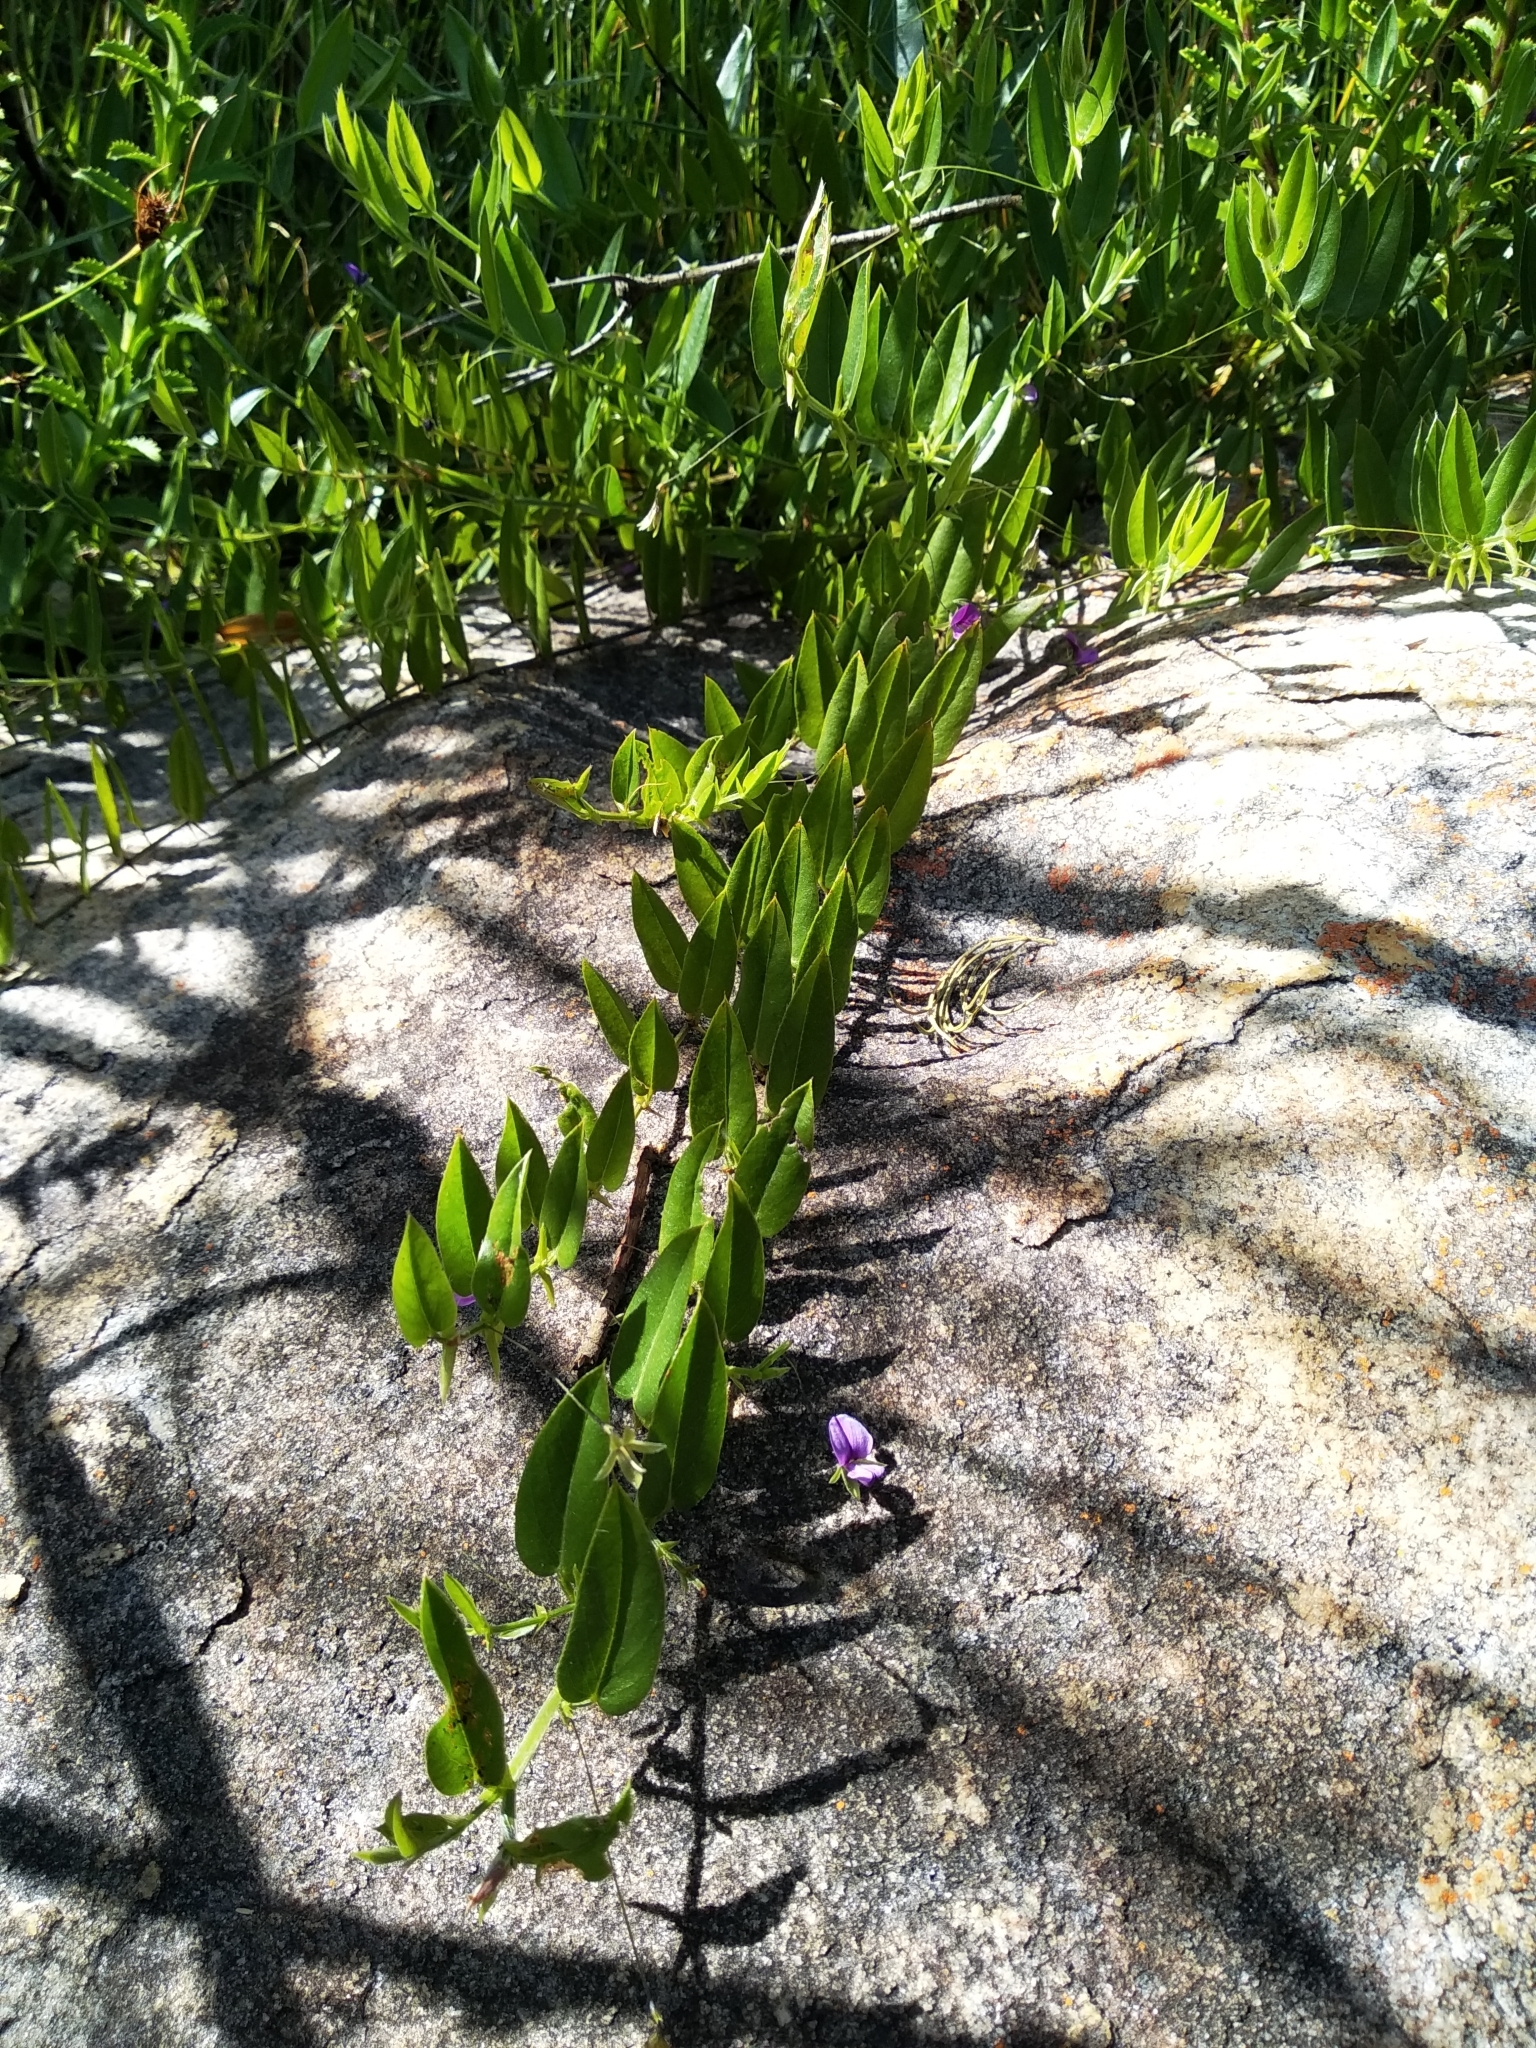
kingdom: Plantae
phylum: Tracheophyta
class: Magnoliopsida
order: Fabales
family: Fabaceae
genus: Psoralea
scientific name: Psoralea monophylla
